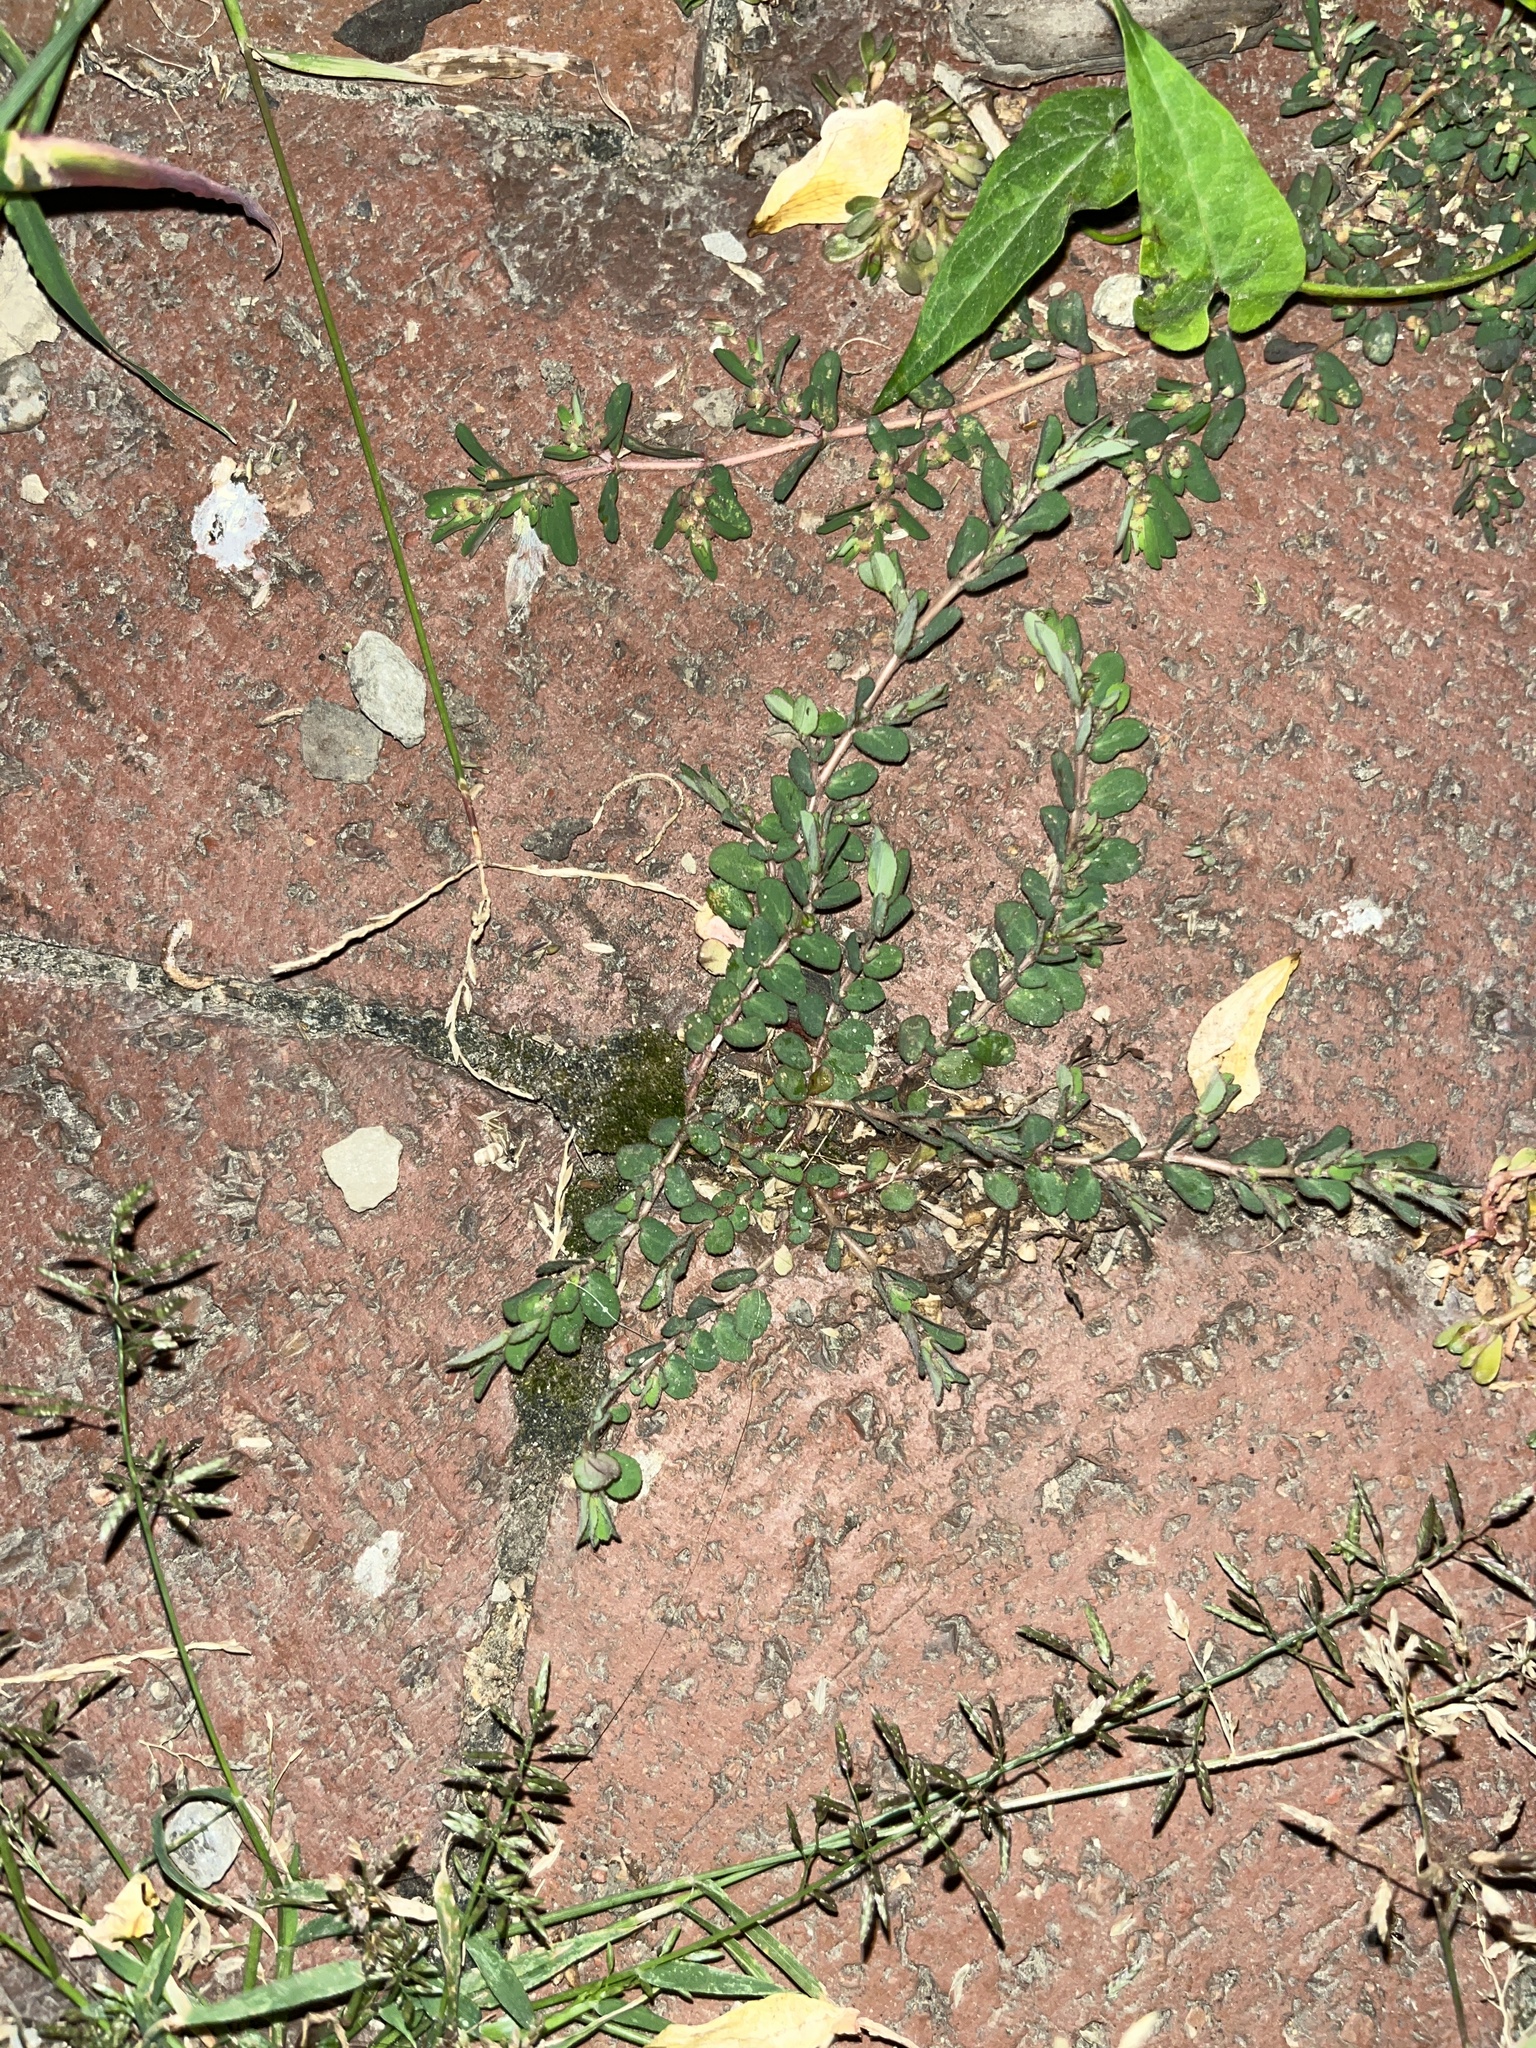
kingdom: Plantae
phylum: Tracheophyta
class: Magnoliopsida
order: Malpighiales
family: Euphorbiaceae
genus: Euphorbia
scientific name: Euphorbia prostrata
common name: Prostrate sandmat
